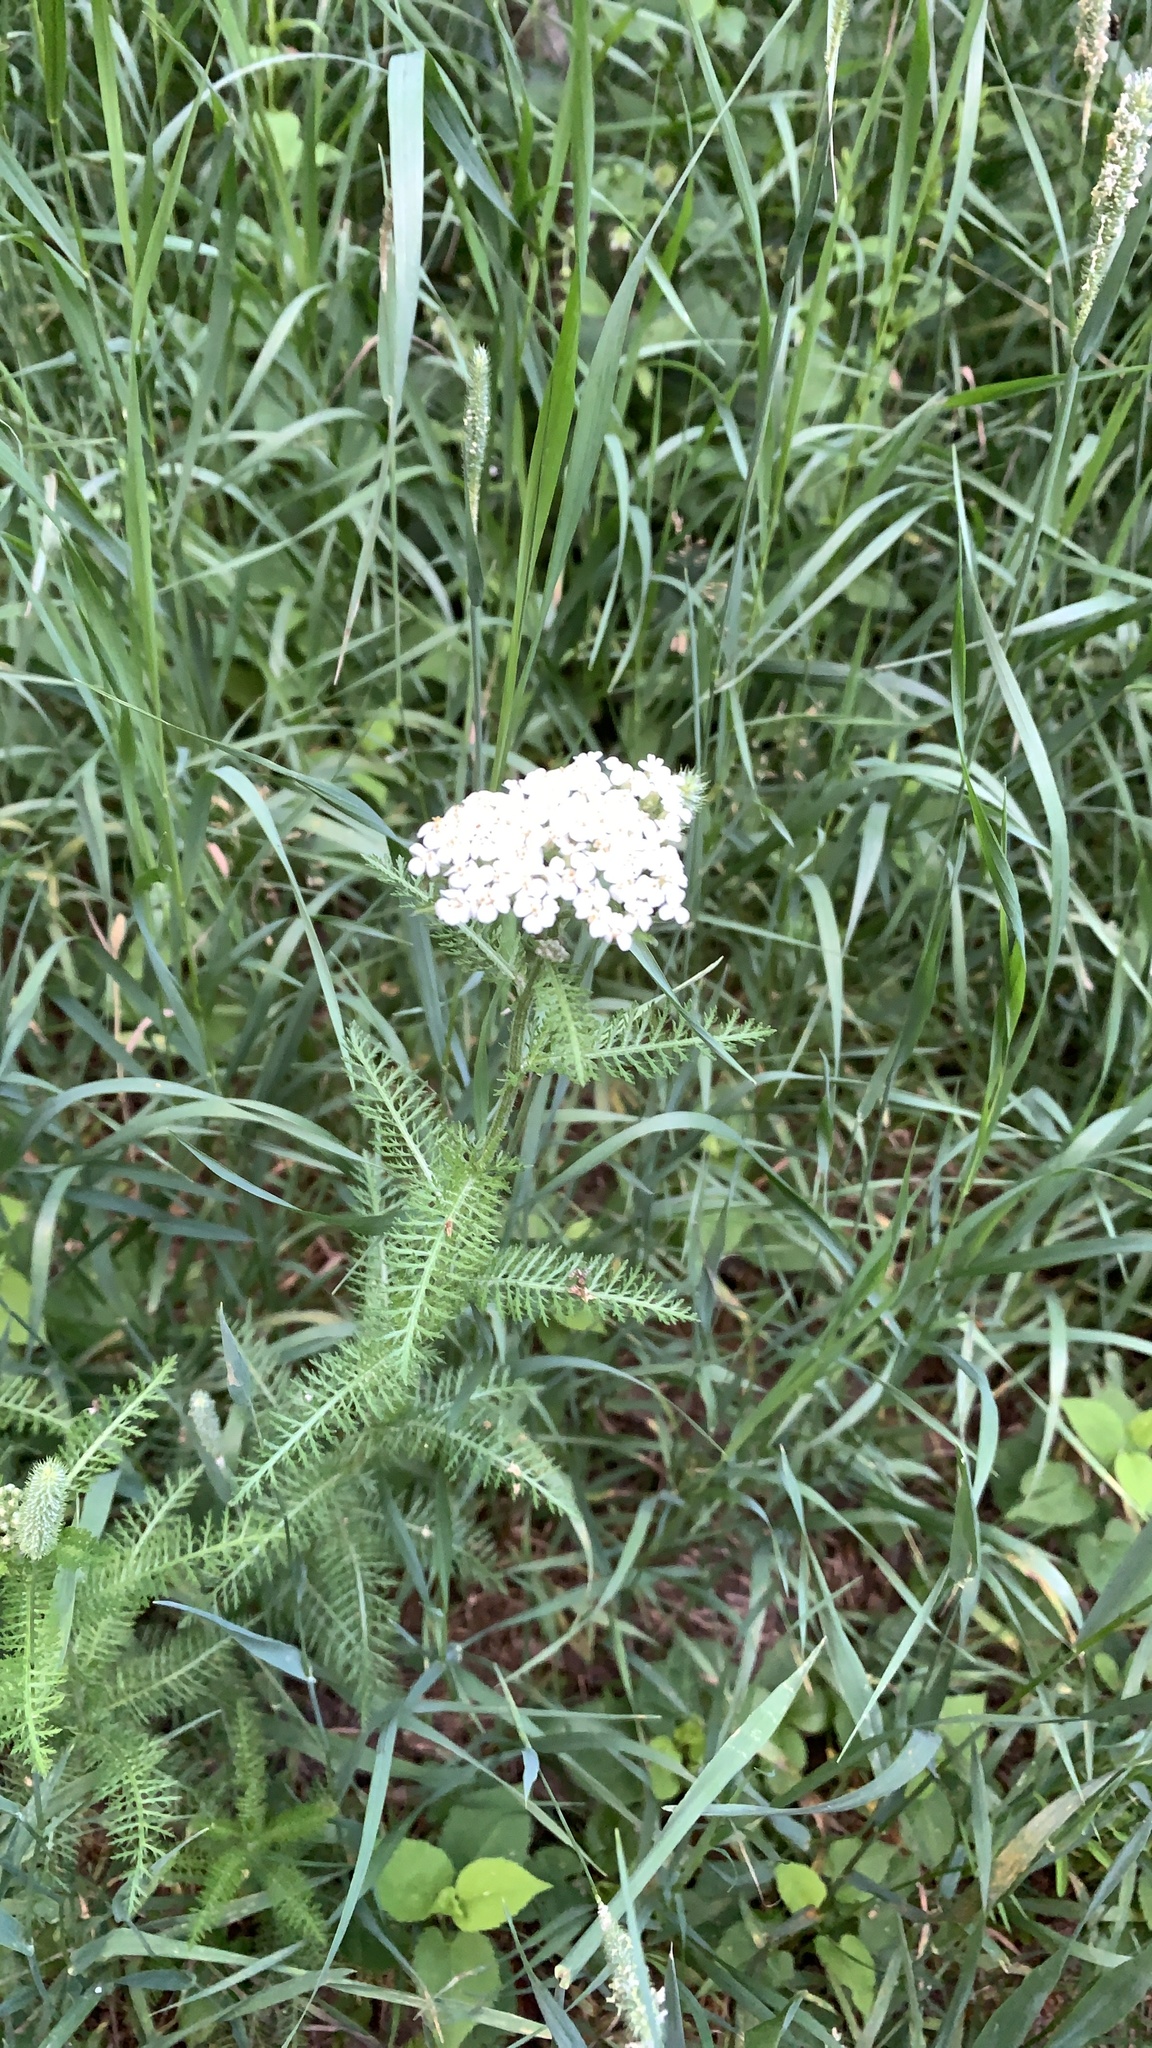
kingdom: Plantae
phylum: Tracheophyta
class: Magnoliopsida
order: Asterales
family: Asteraceae
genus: Achillea
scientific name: Achillea millefolium
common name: Yarrow
